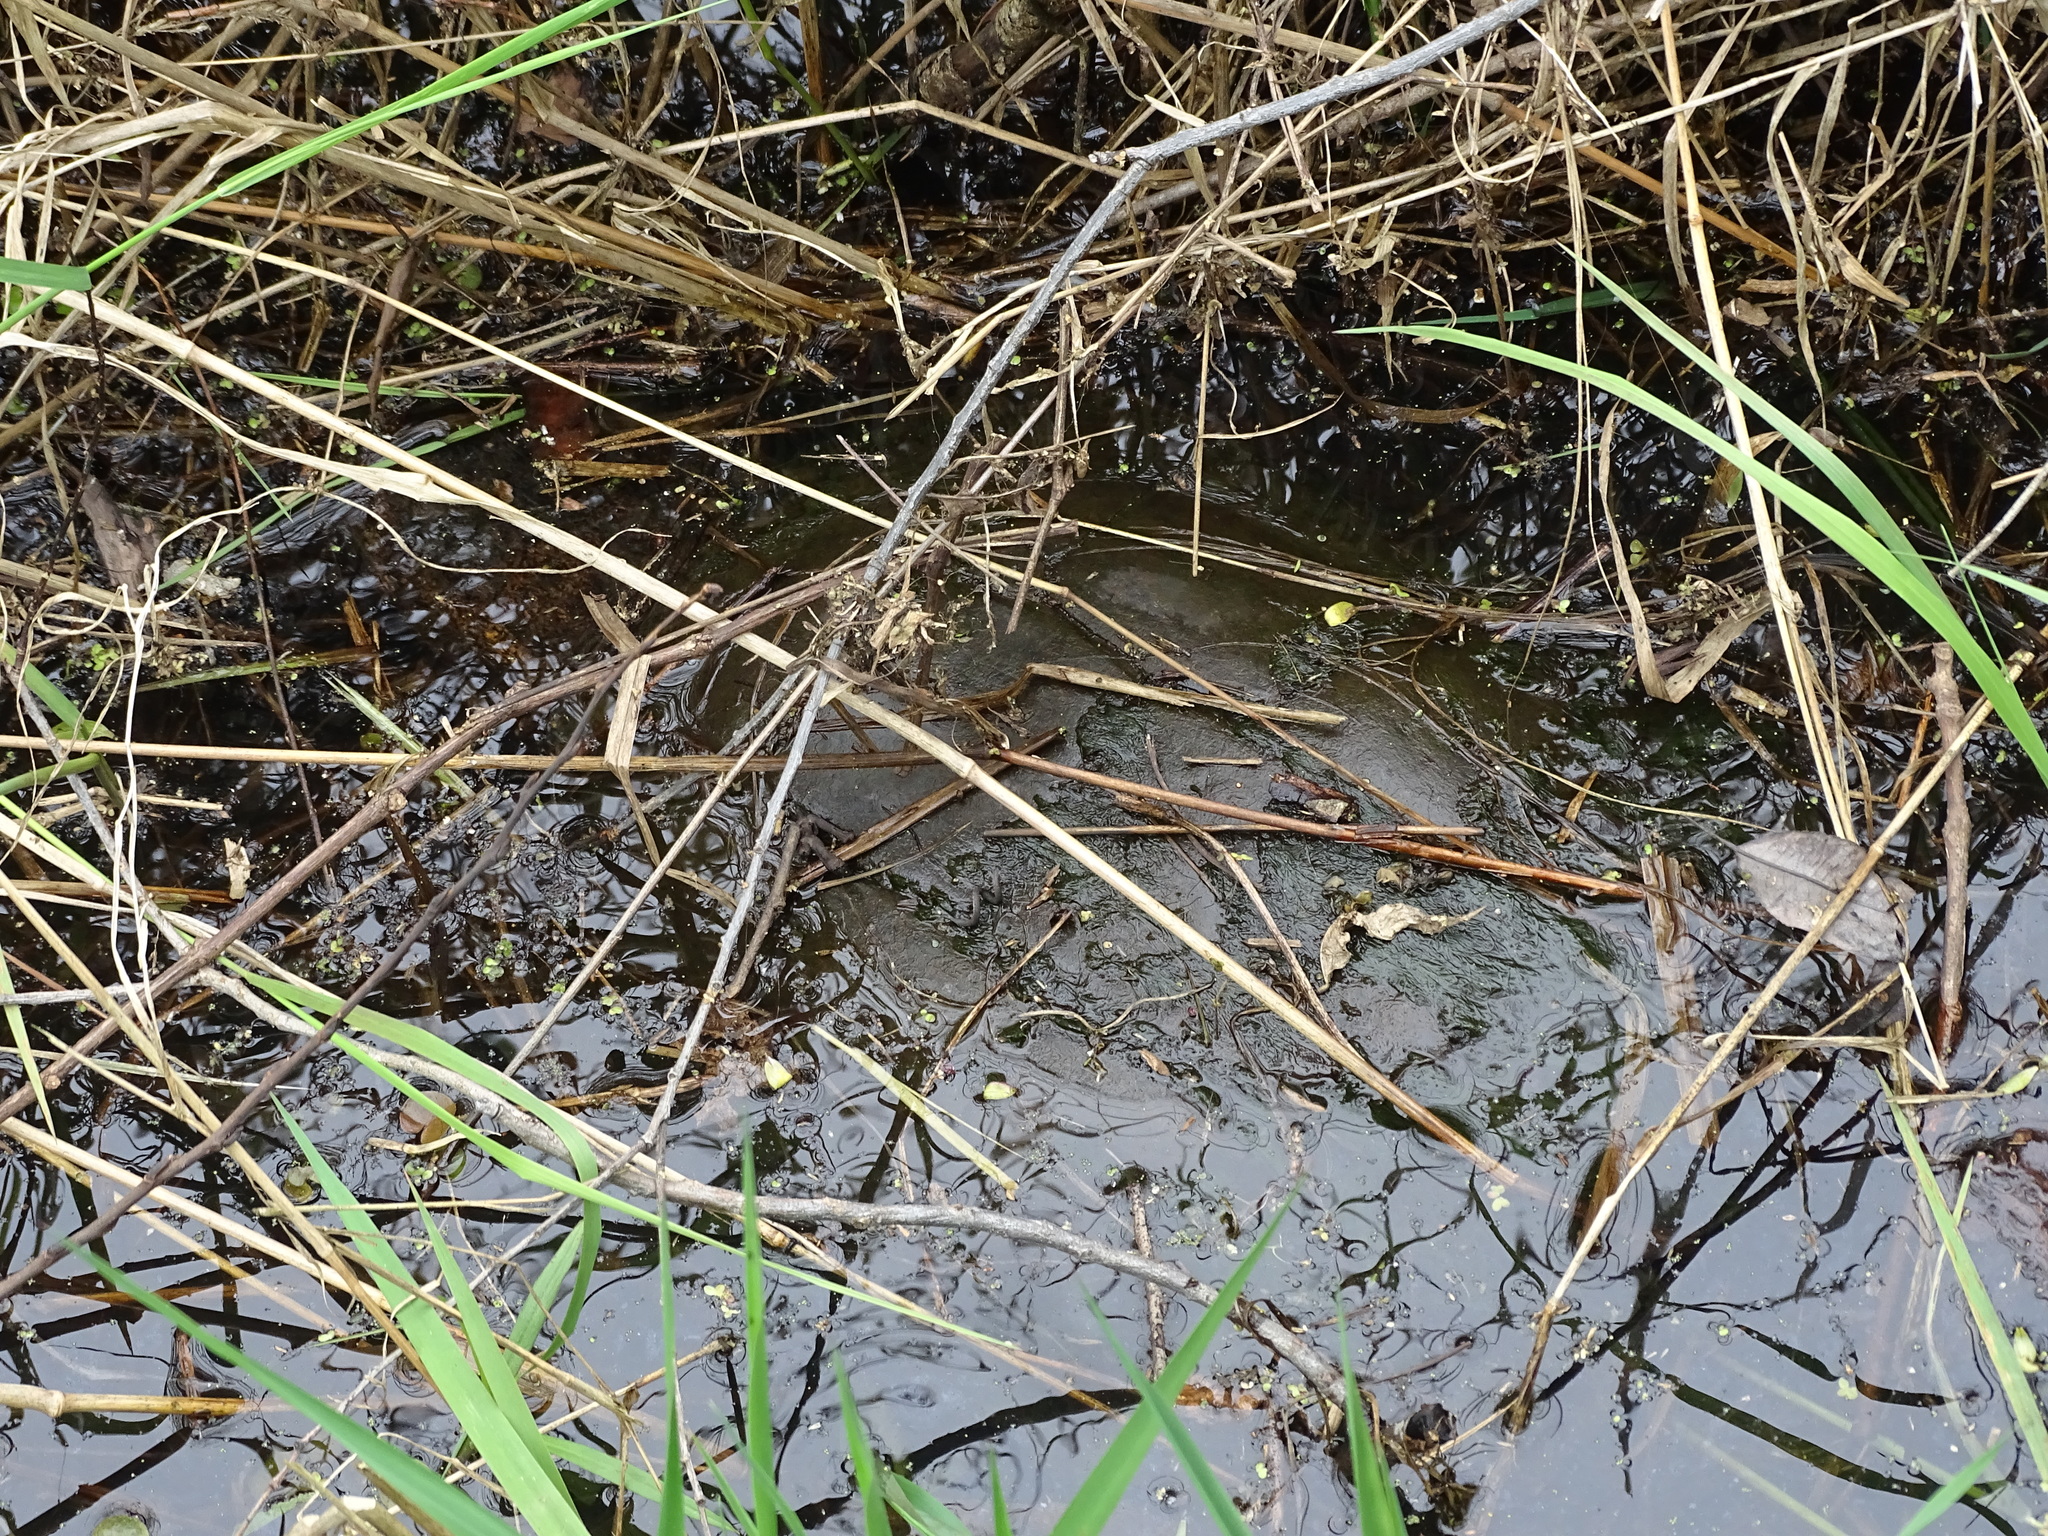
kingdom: Animalia
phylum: Chordata
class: Testudines
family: Chelydridae
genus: Chelydra
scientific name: Chelydra serpentina
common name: Common snapping turtle
